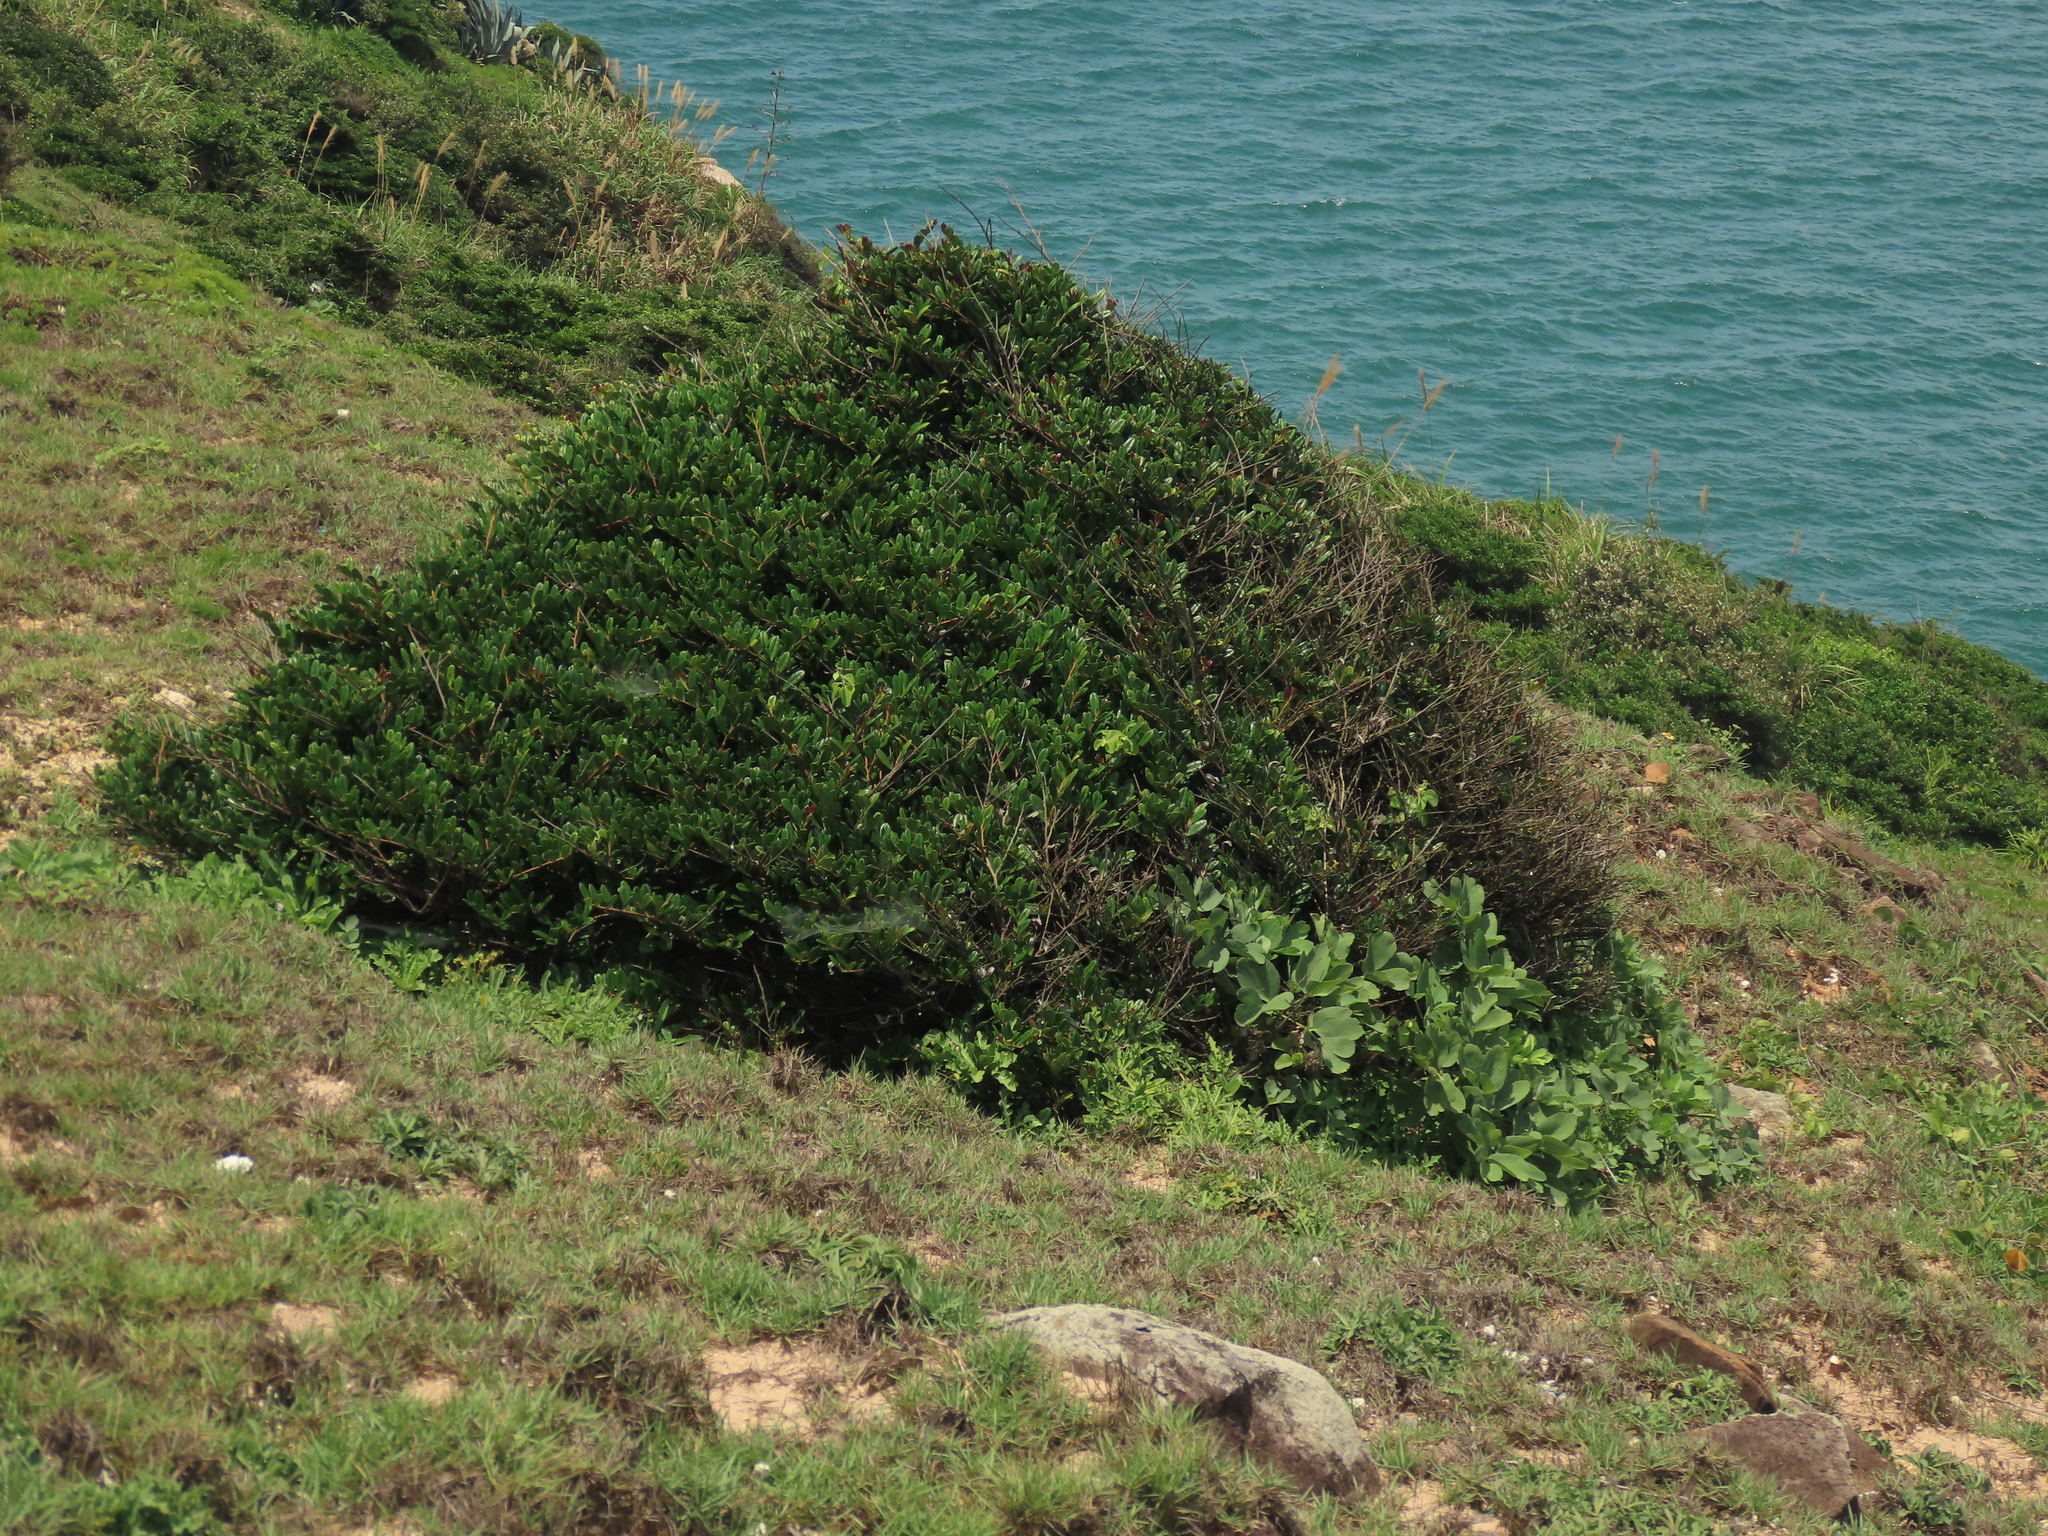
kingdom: Plantae
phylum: Tracheophyta
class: Magnoliopsida
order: Ericales
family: Pentaphylacaceae
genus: Eurya
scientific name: Eurya emarginata
